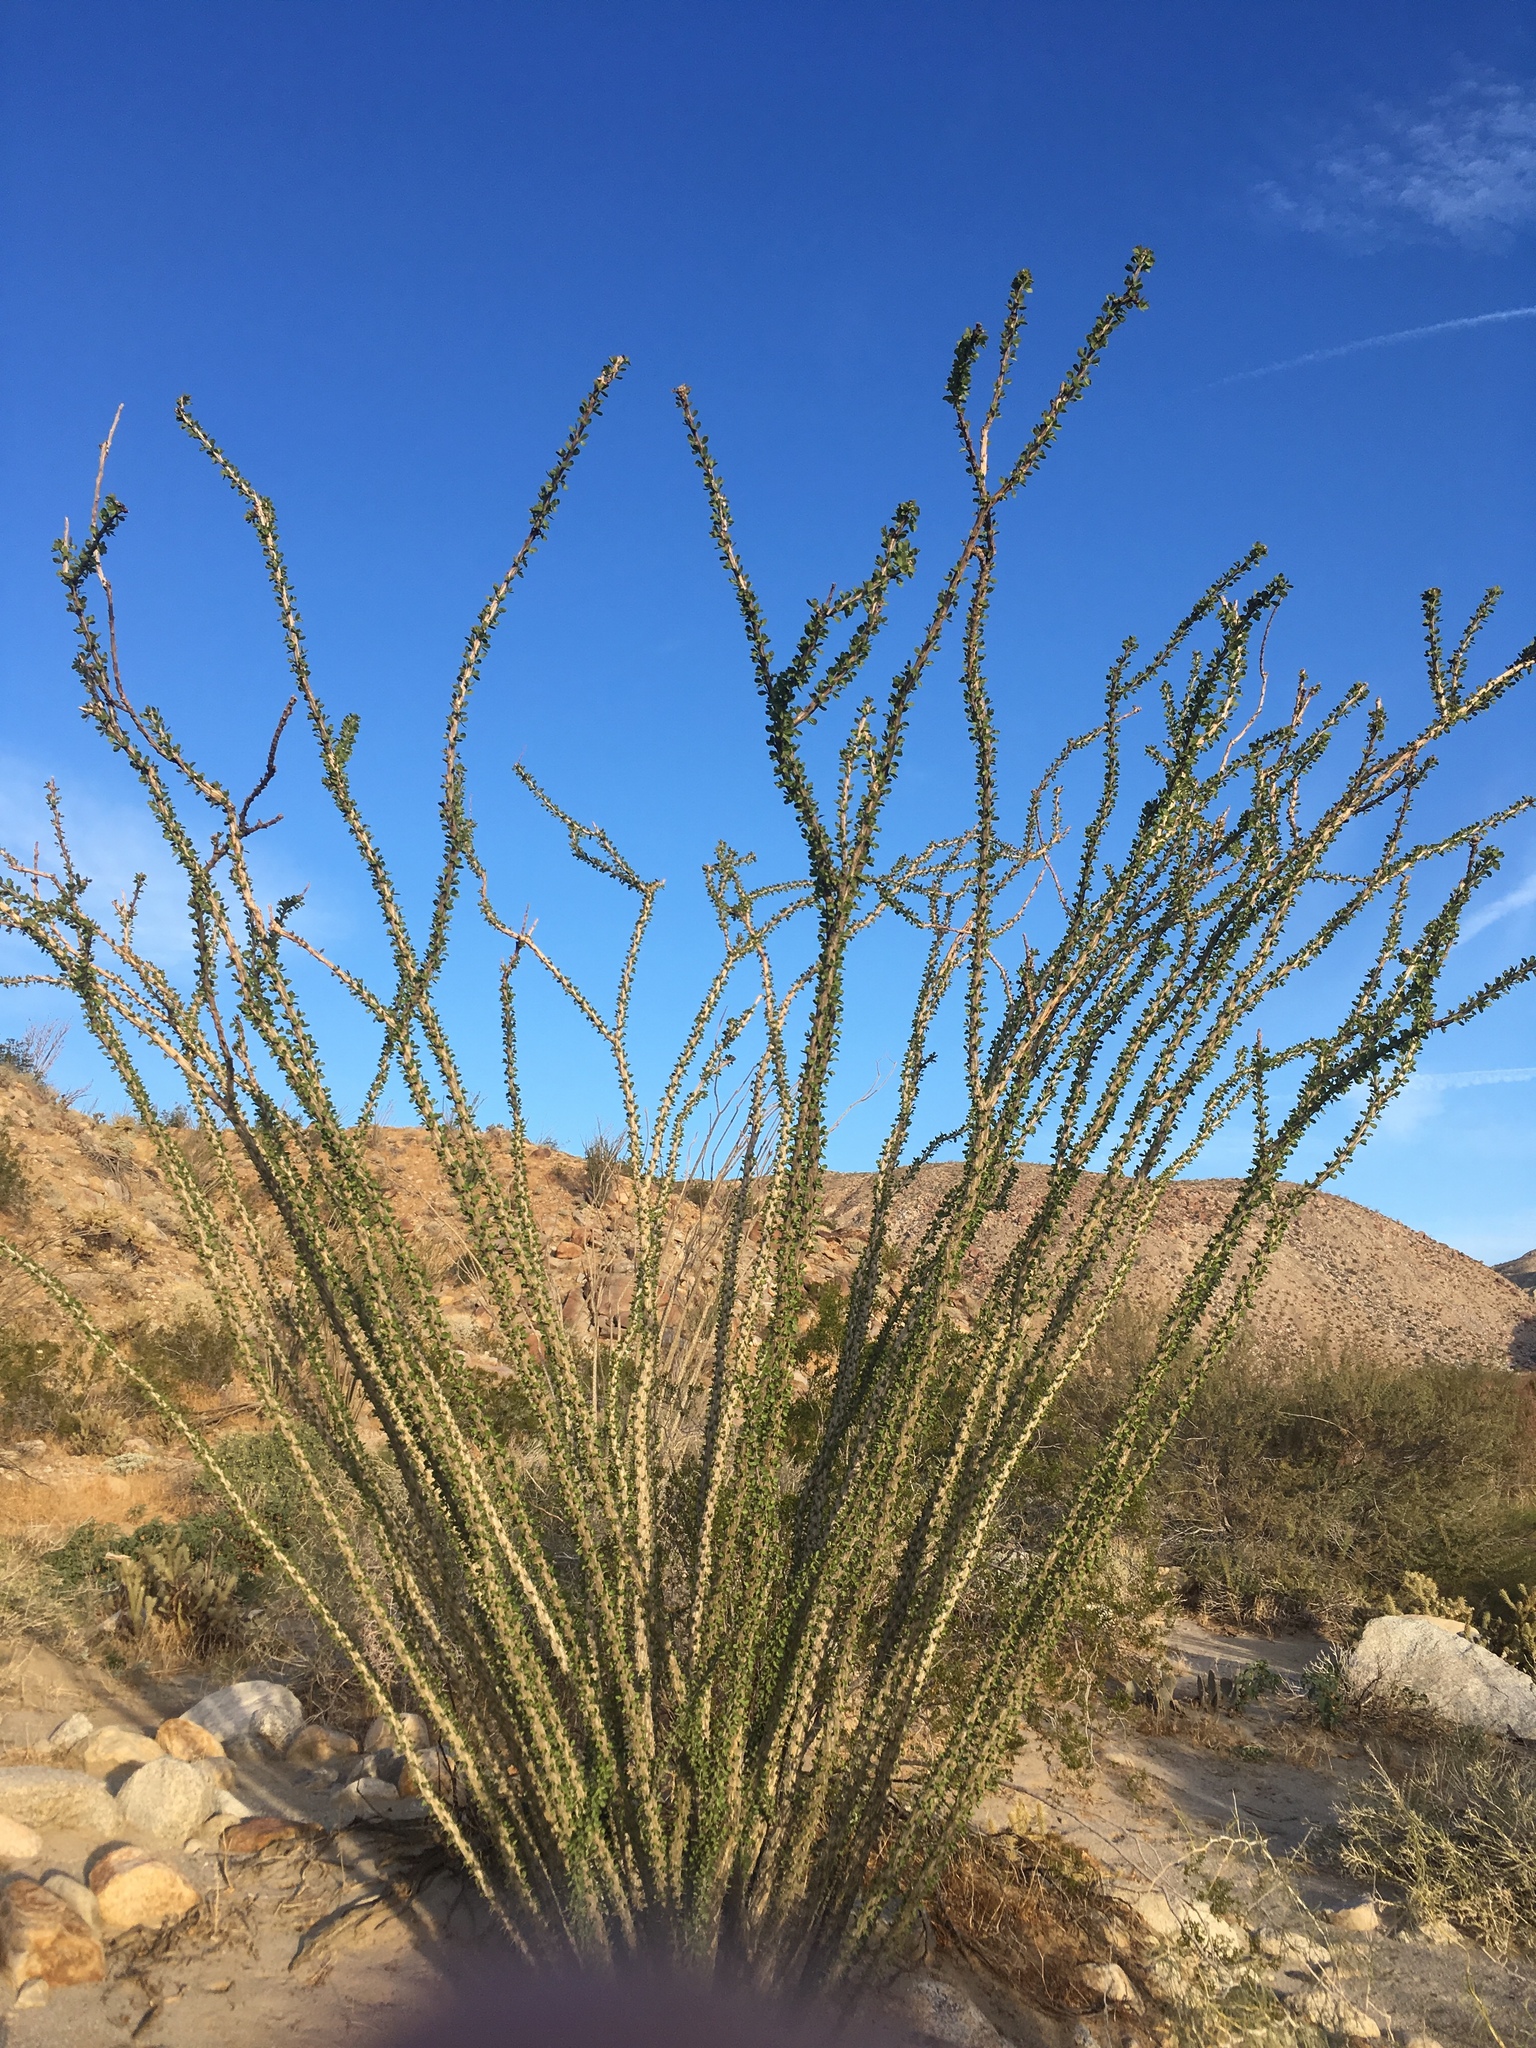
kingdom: Plantae
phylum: Tracheophyta
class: Magnoliopsida
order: Ericales
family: Fouquieriaceae
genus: Fouquieria
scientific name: Fouquieria splendens
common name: Vine-cactus
